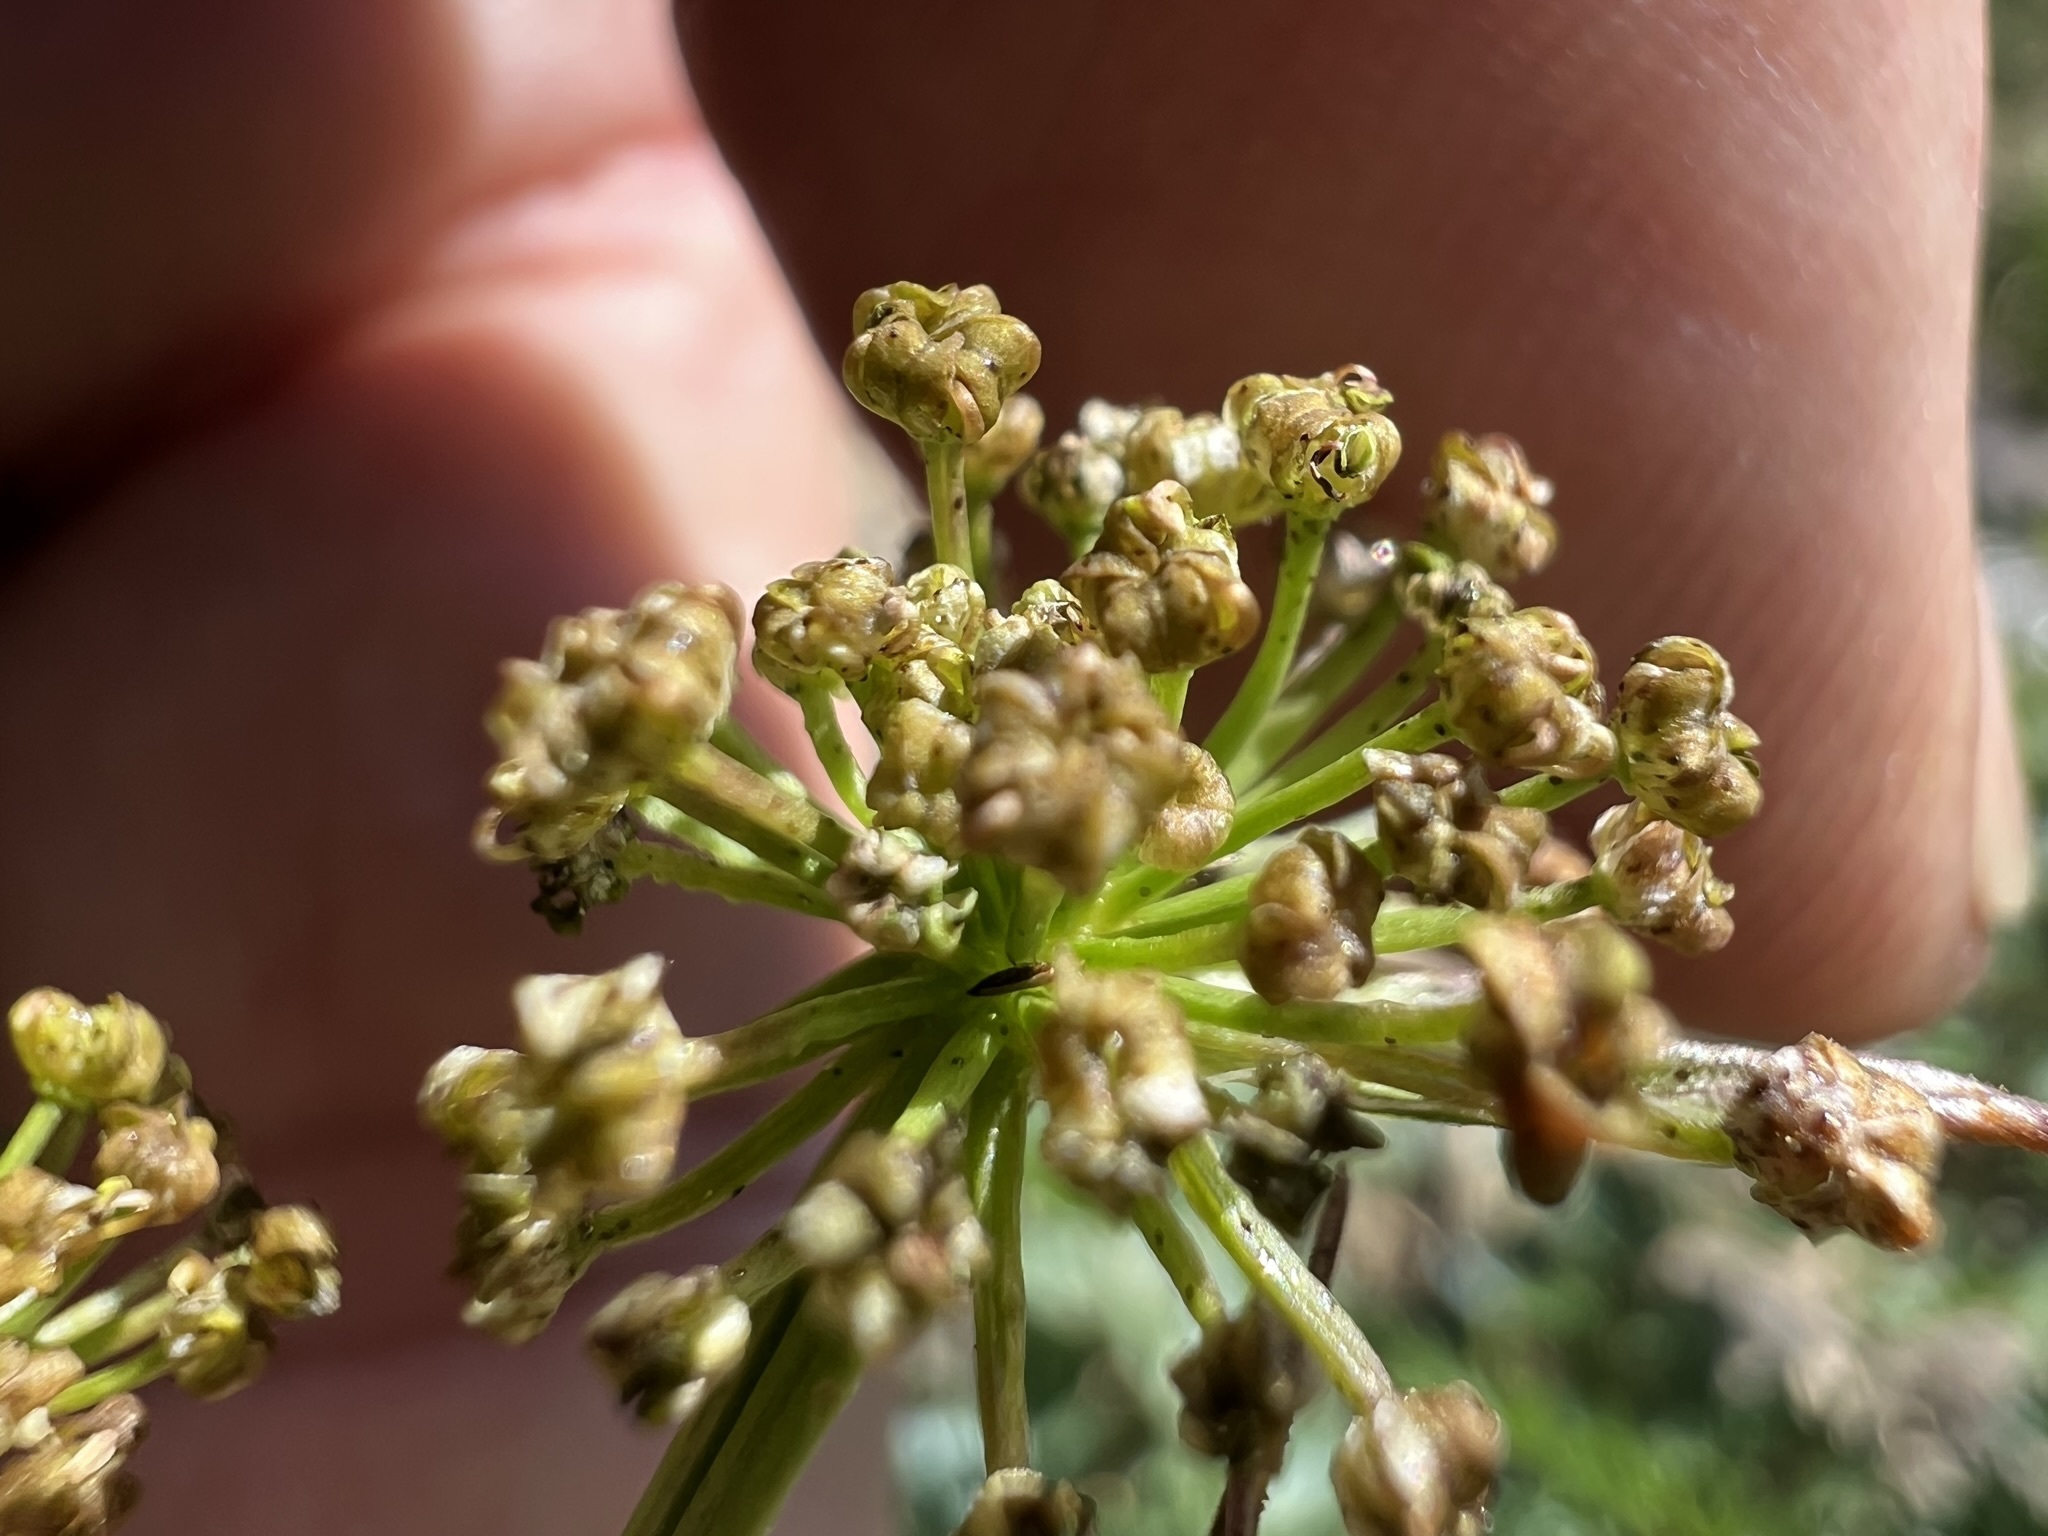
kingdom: Plantae
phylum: Tracheophyta
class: Magnoliopsida
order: Apiales
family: Apiaceae
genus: Ligusticum
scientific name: Ligusticum grayi
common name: Gray's licorice-root
